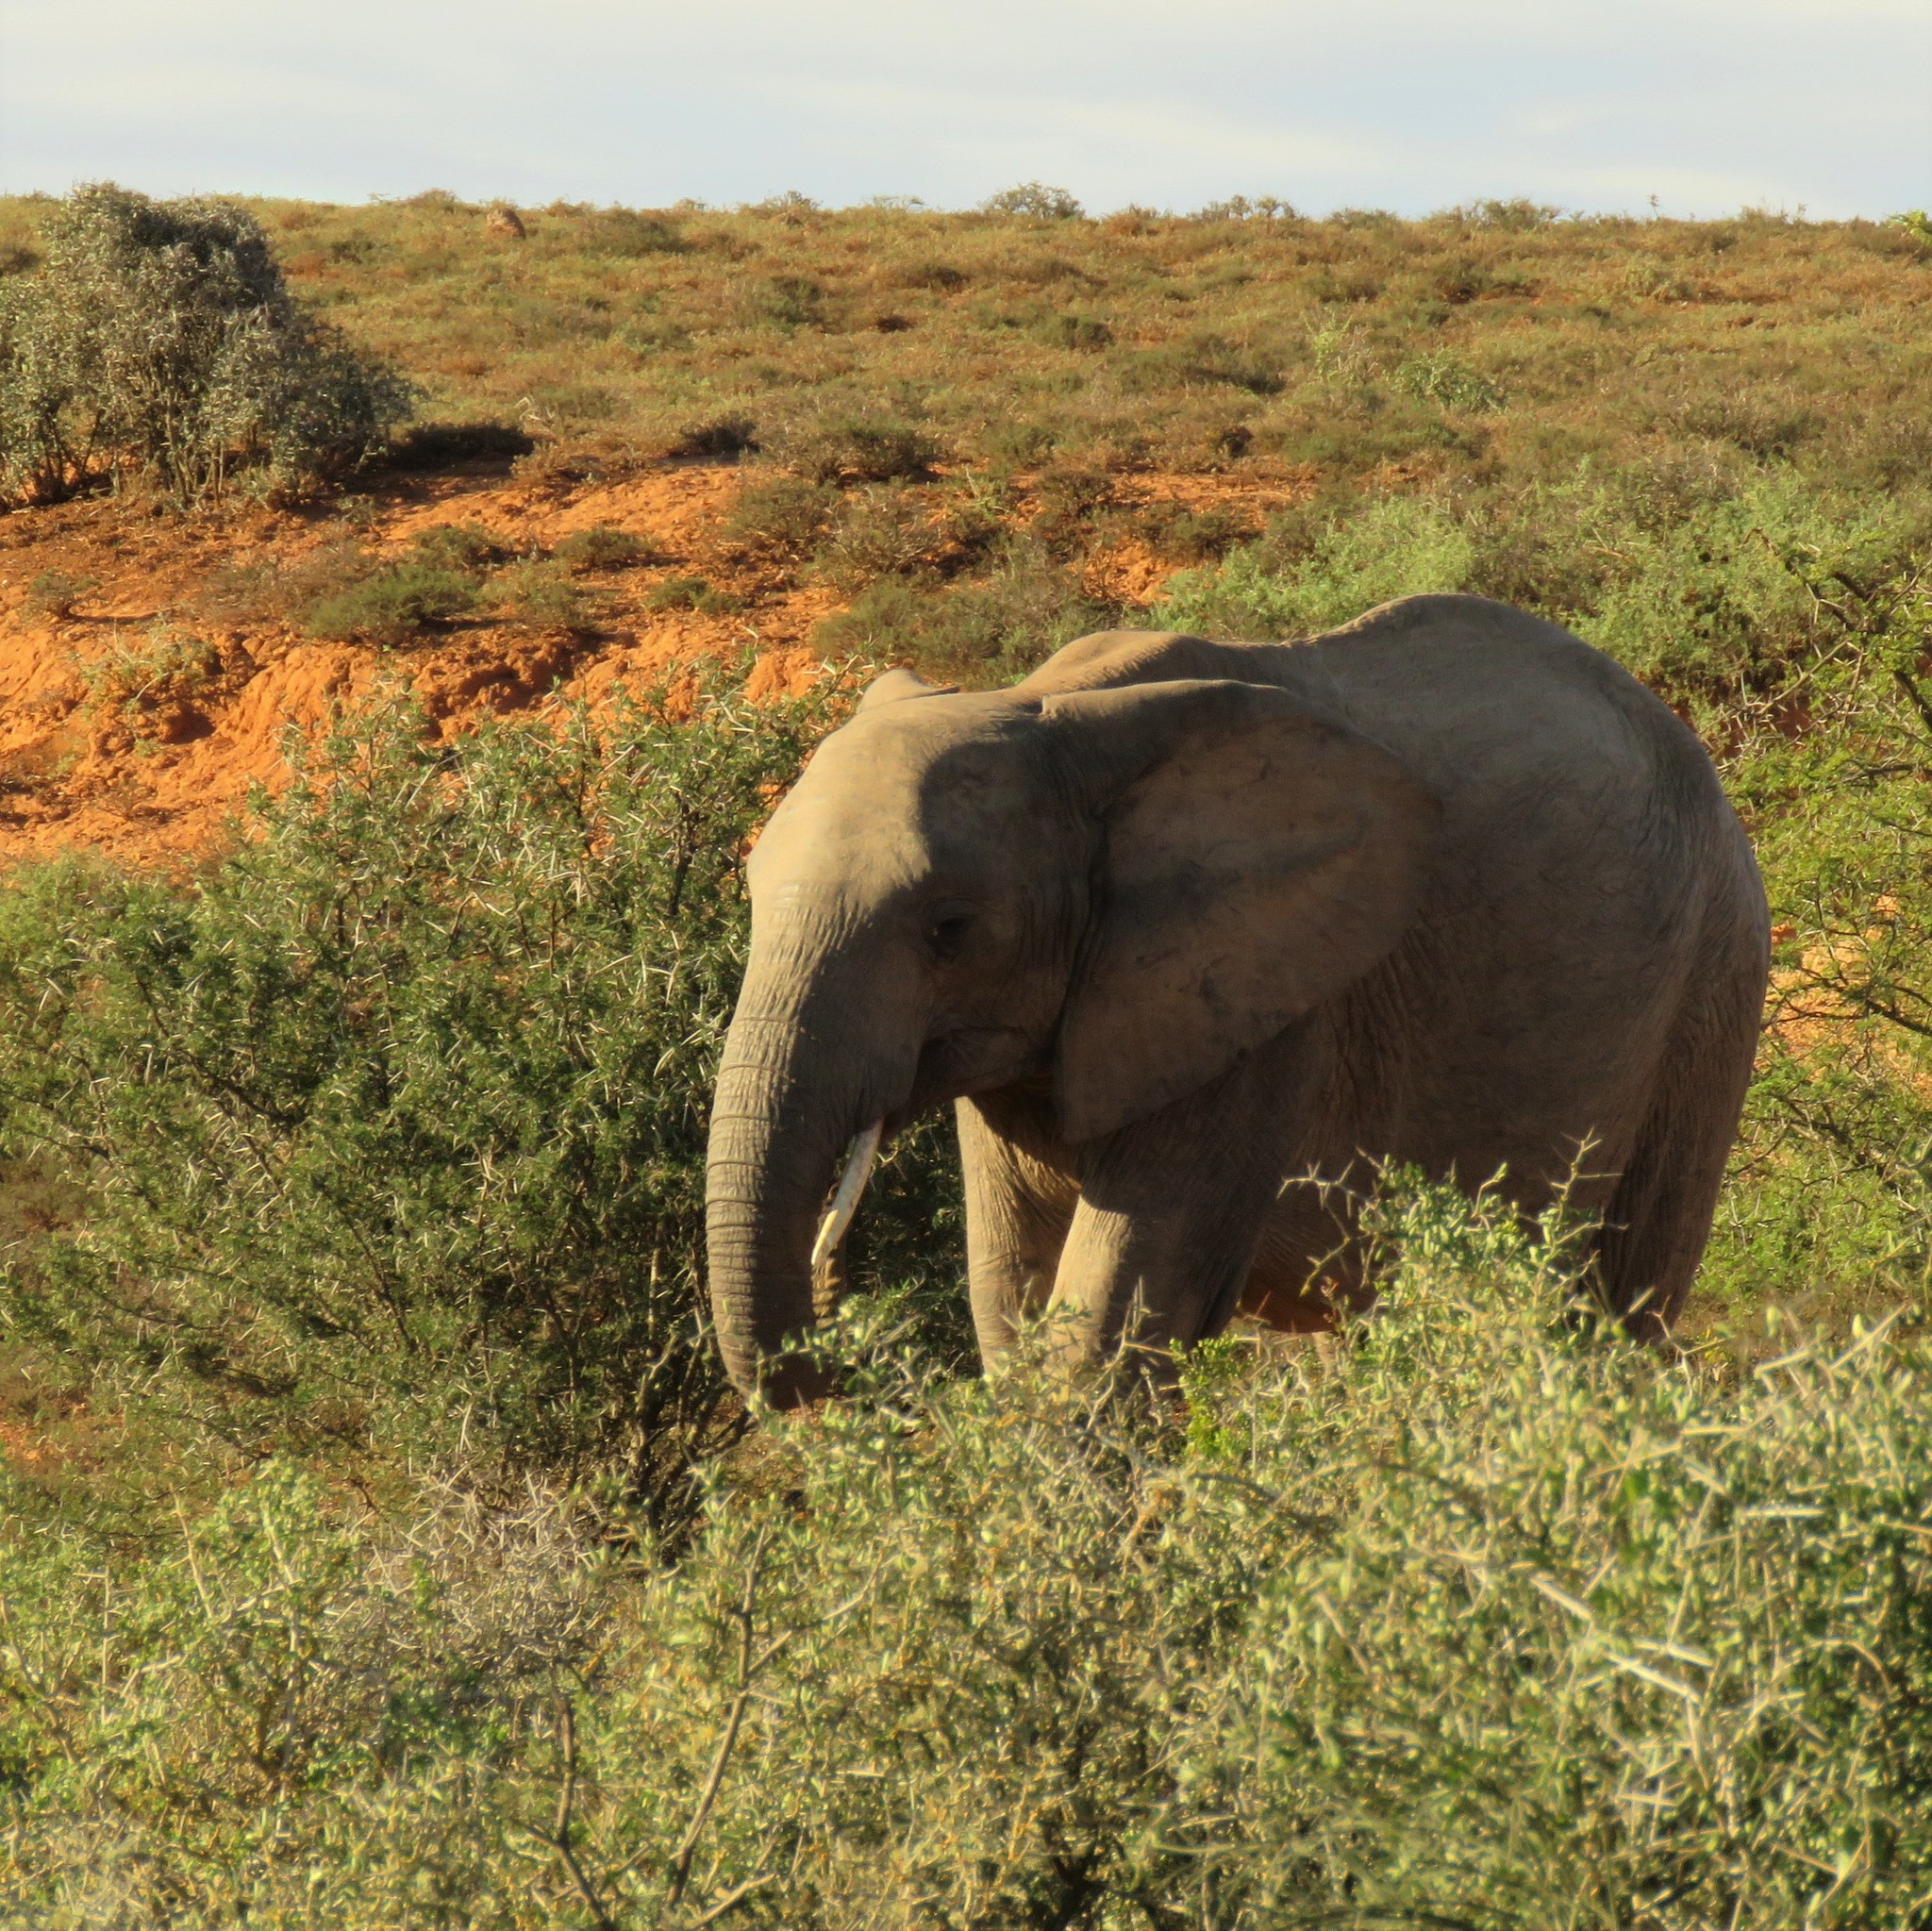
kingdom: Animalia
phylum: Chordata
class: Mammalia
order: Proboscidea
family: Elephantidae
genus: Loxodonta
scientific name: Loxodonta africana
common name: African elephant
